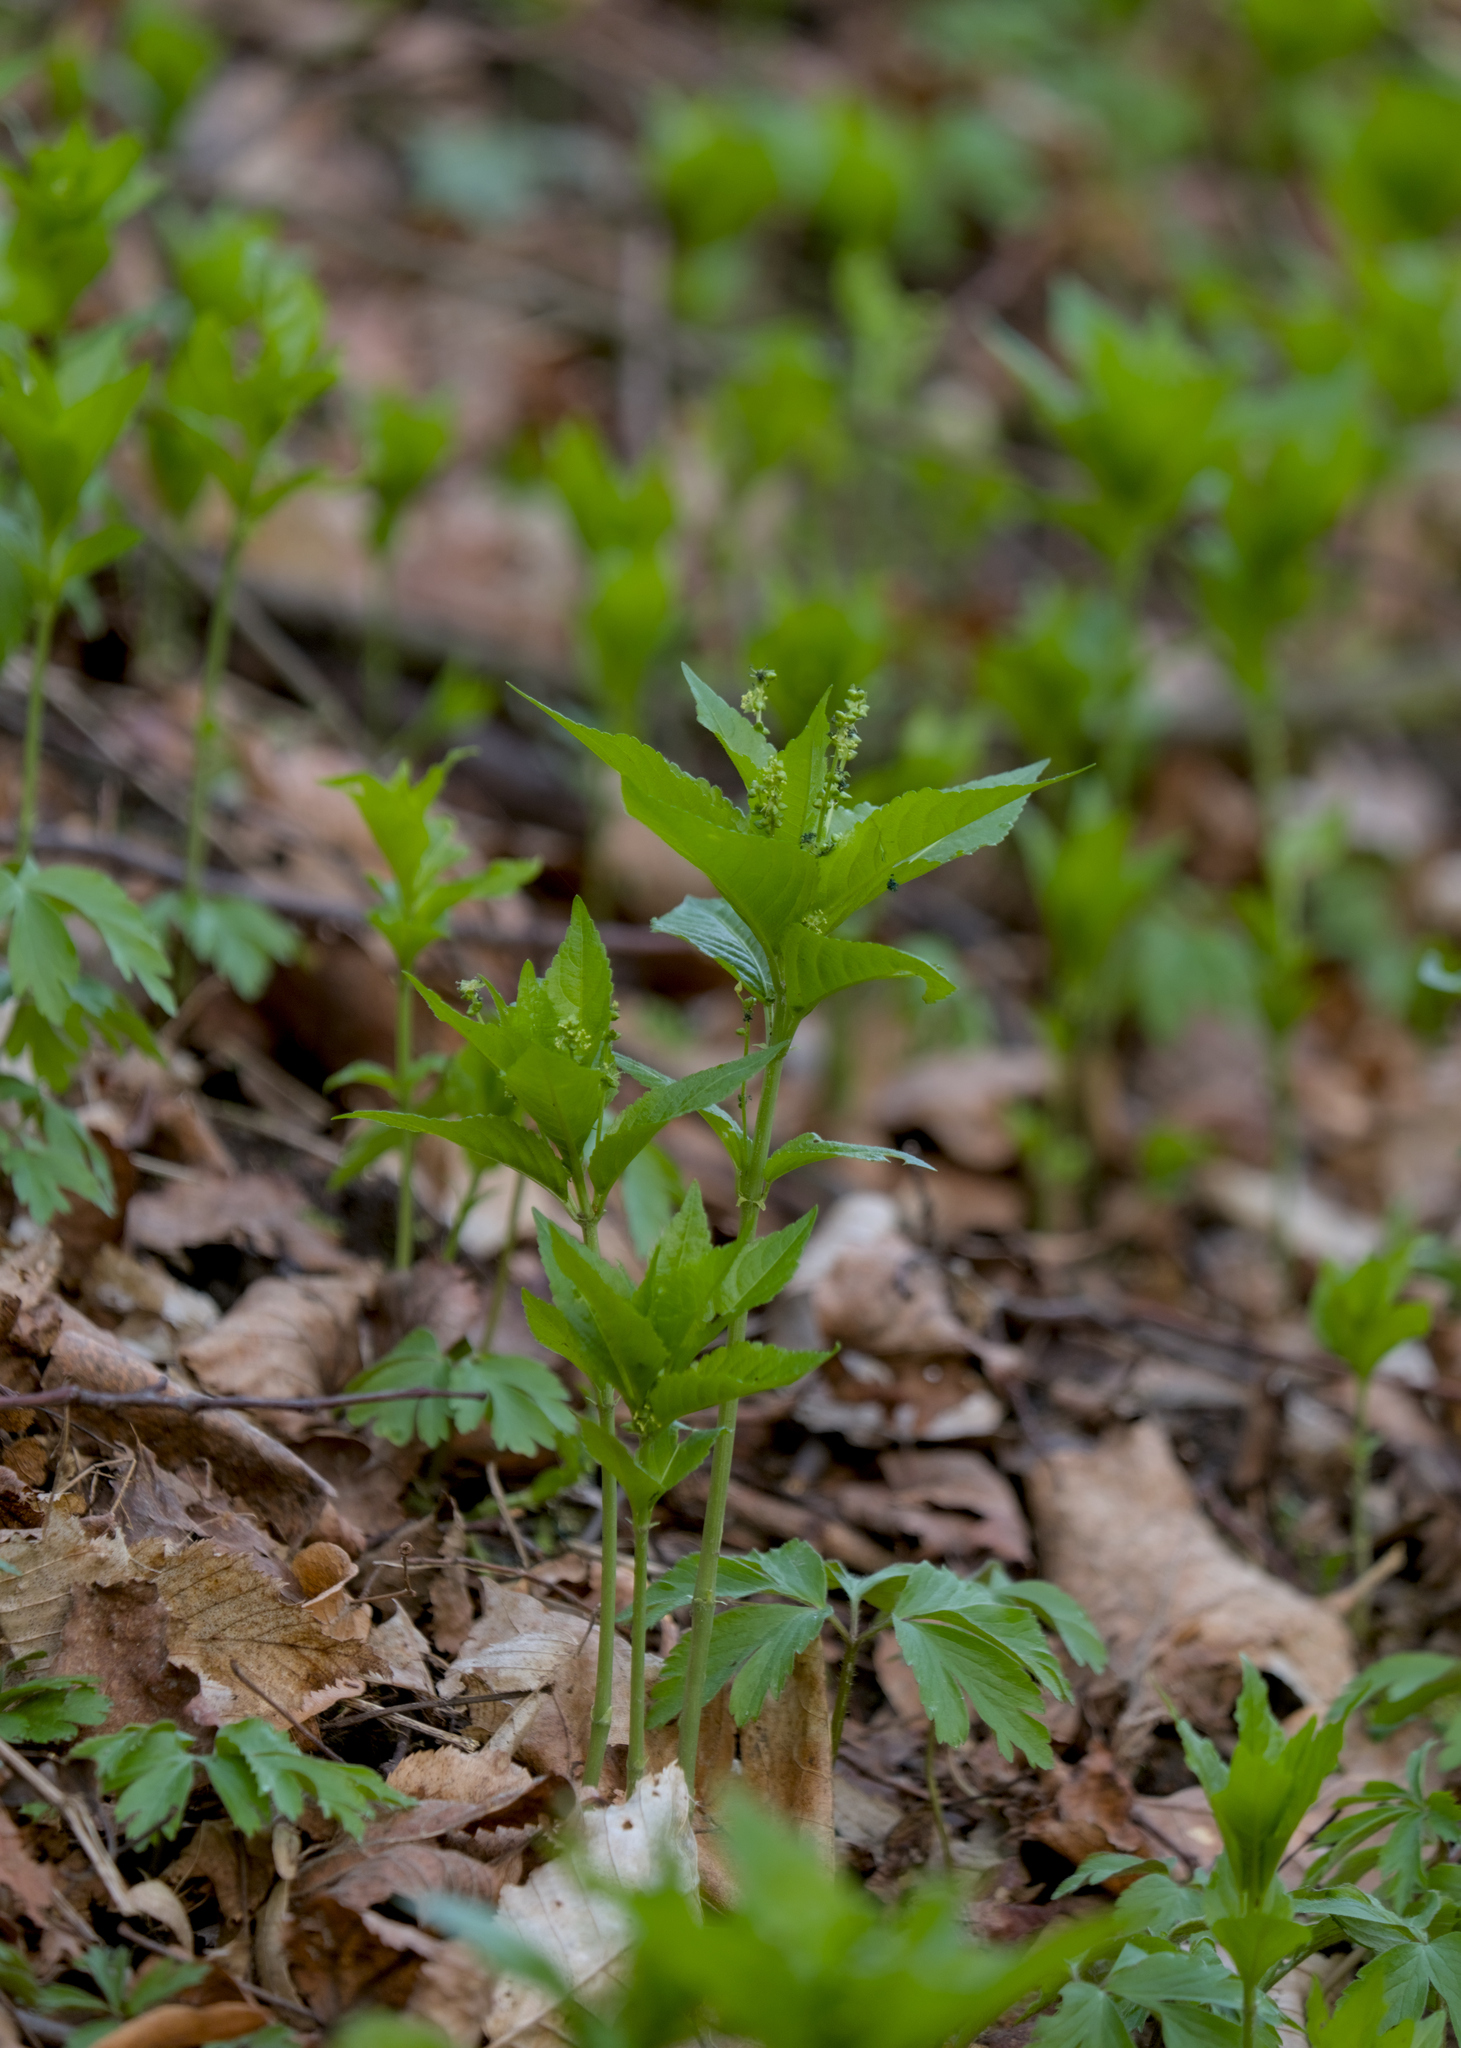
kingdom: Plantae
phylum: Tracheophyta
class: Magnoliopsida
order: Malpighiales
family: Euphorbiaceae
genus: Mercurialis
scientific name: Mercurialis perennis
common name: Dog mercury
